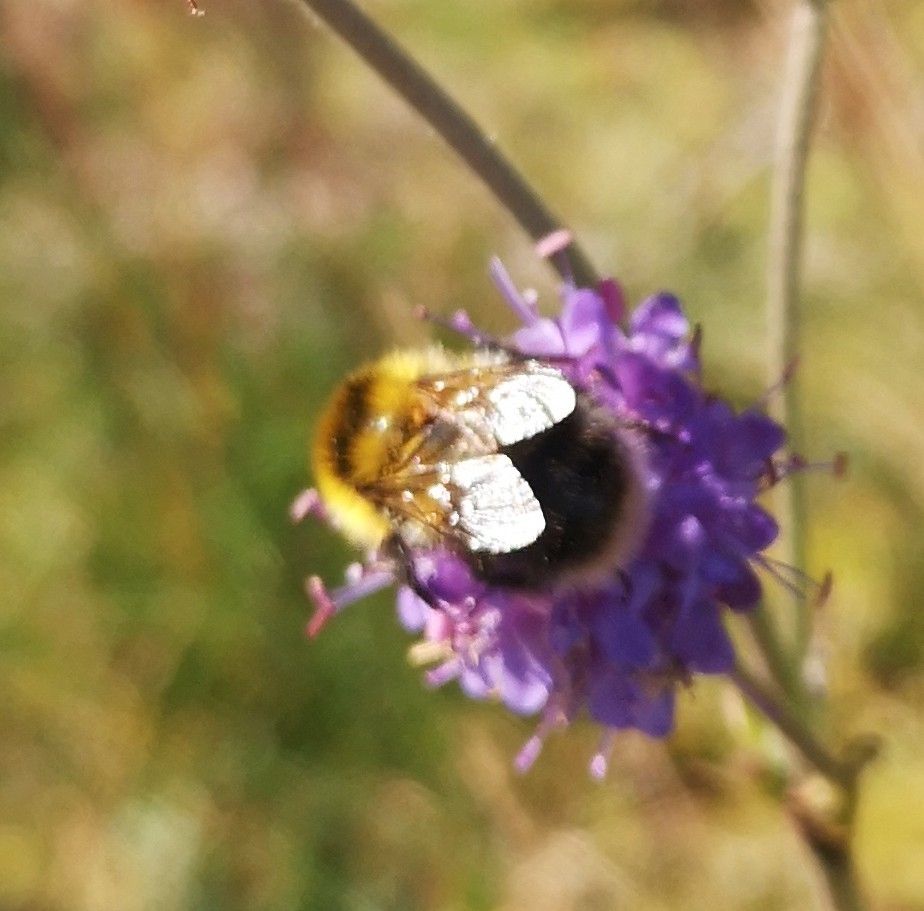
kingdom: Animalia
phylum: Arthropoda
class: Insecta
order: Hymenoptera
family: Apidae
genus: Bombus
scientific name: Bombus jonellus
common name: Heath humble-bee
